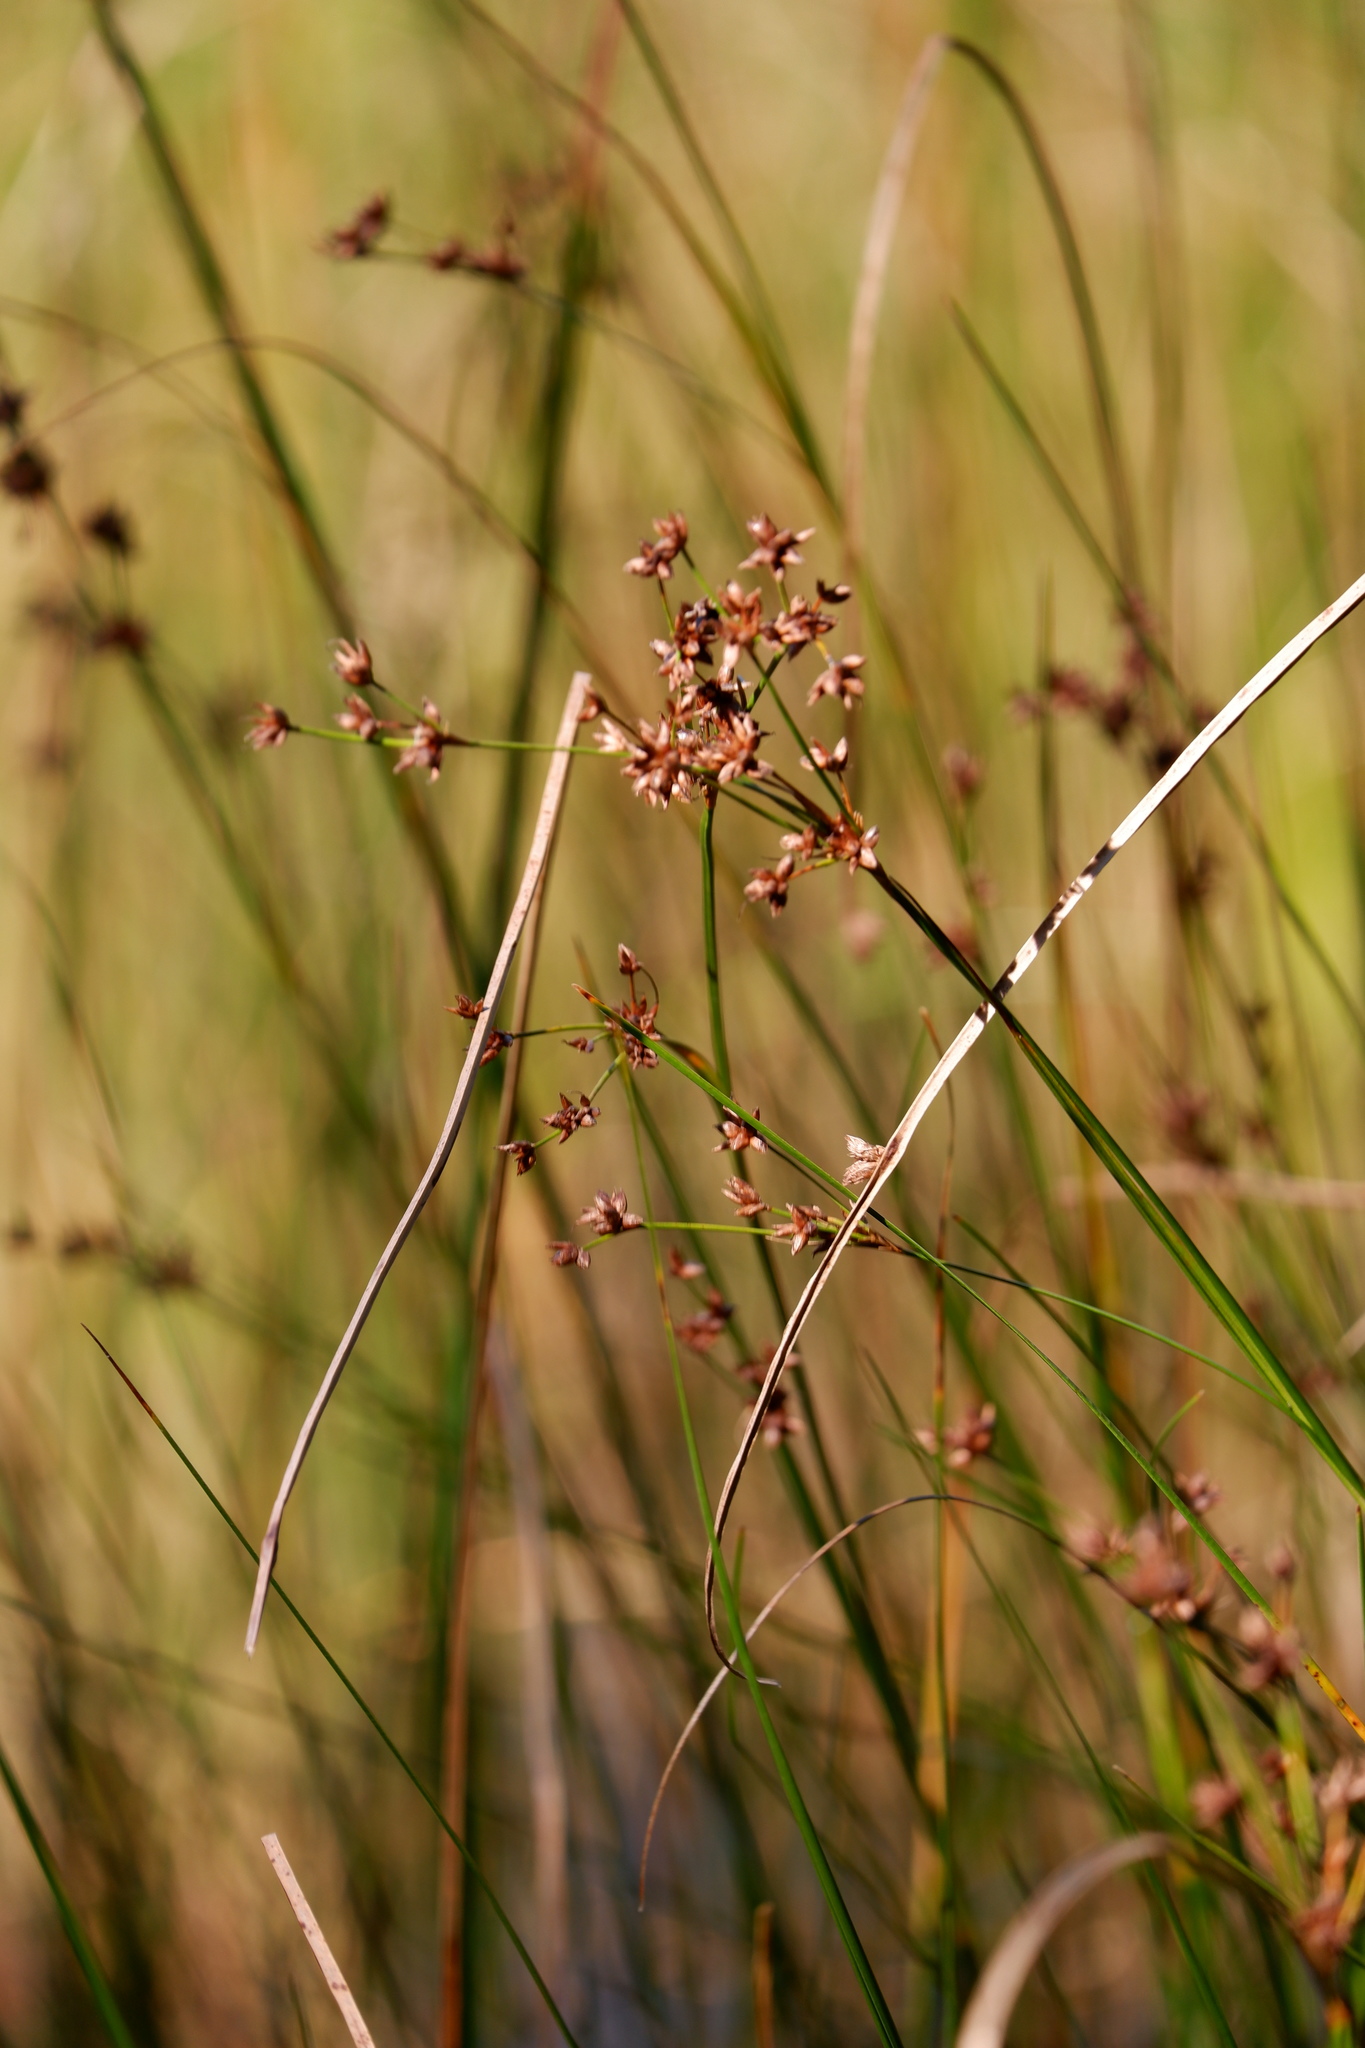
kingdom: Plantae
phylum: Tracheophyta
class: Liliopsida
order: Poales
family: Cyperaceae
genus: Cladium
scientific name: Cladium mariscoides
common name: Smooth sawgrass
